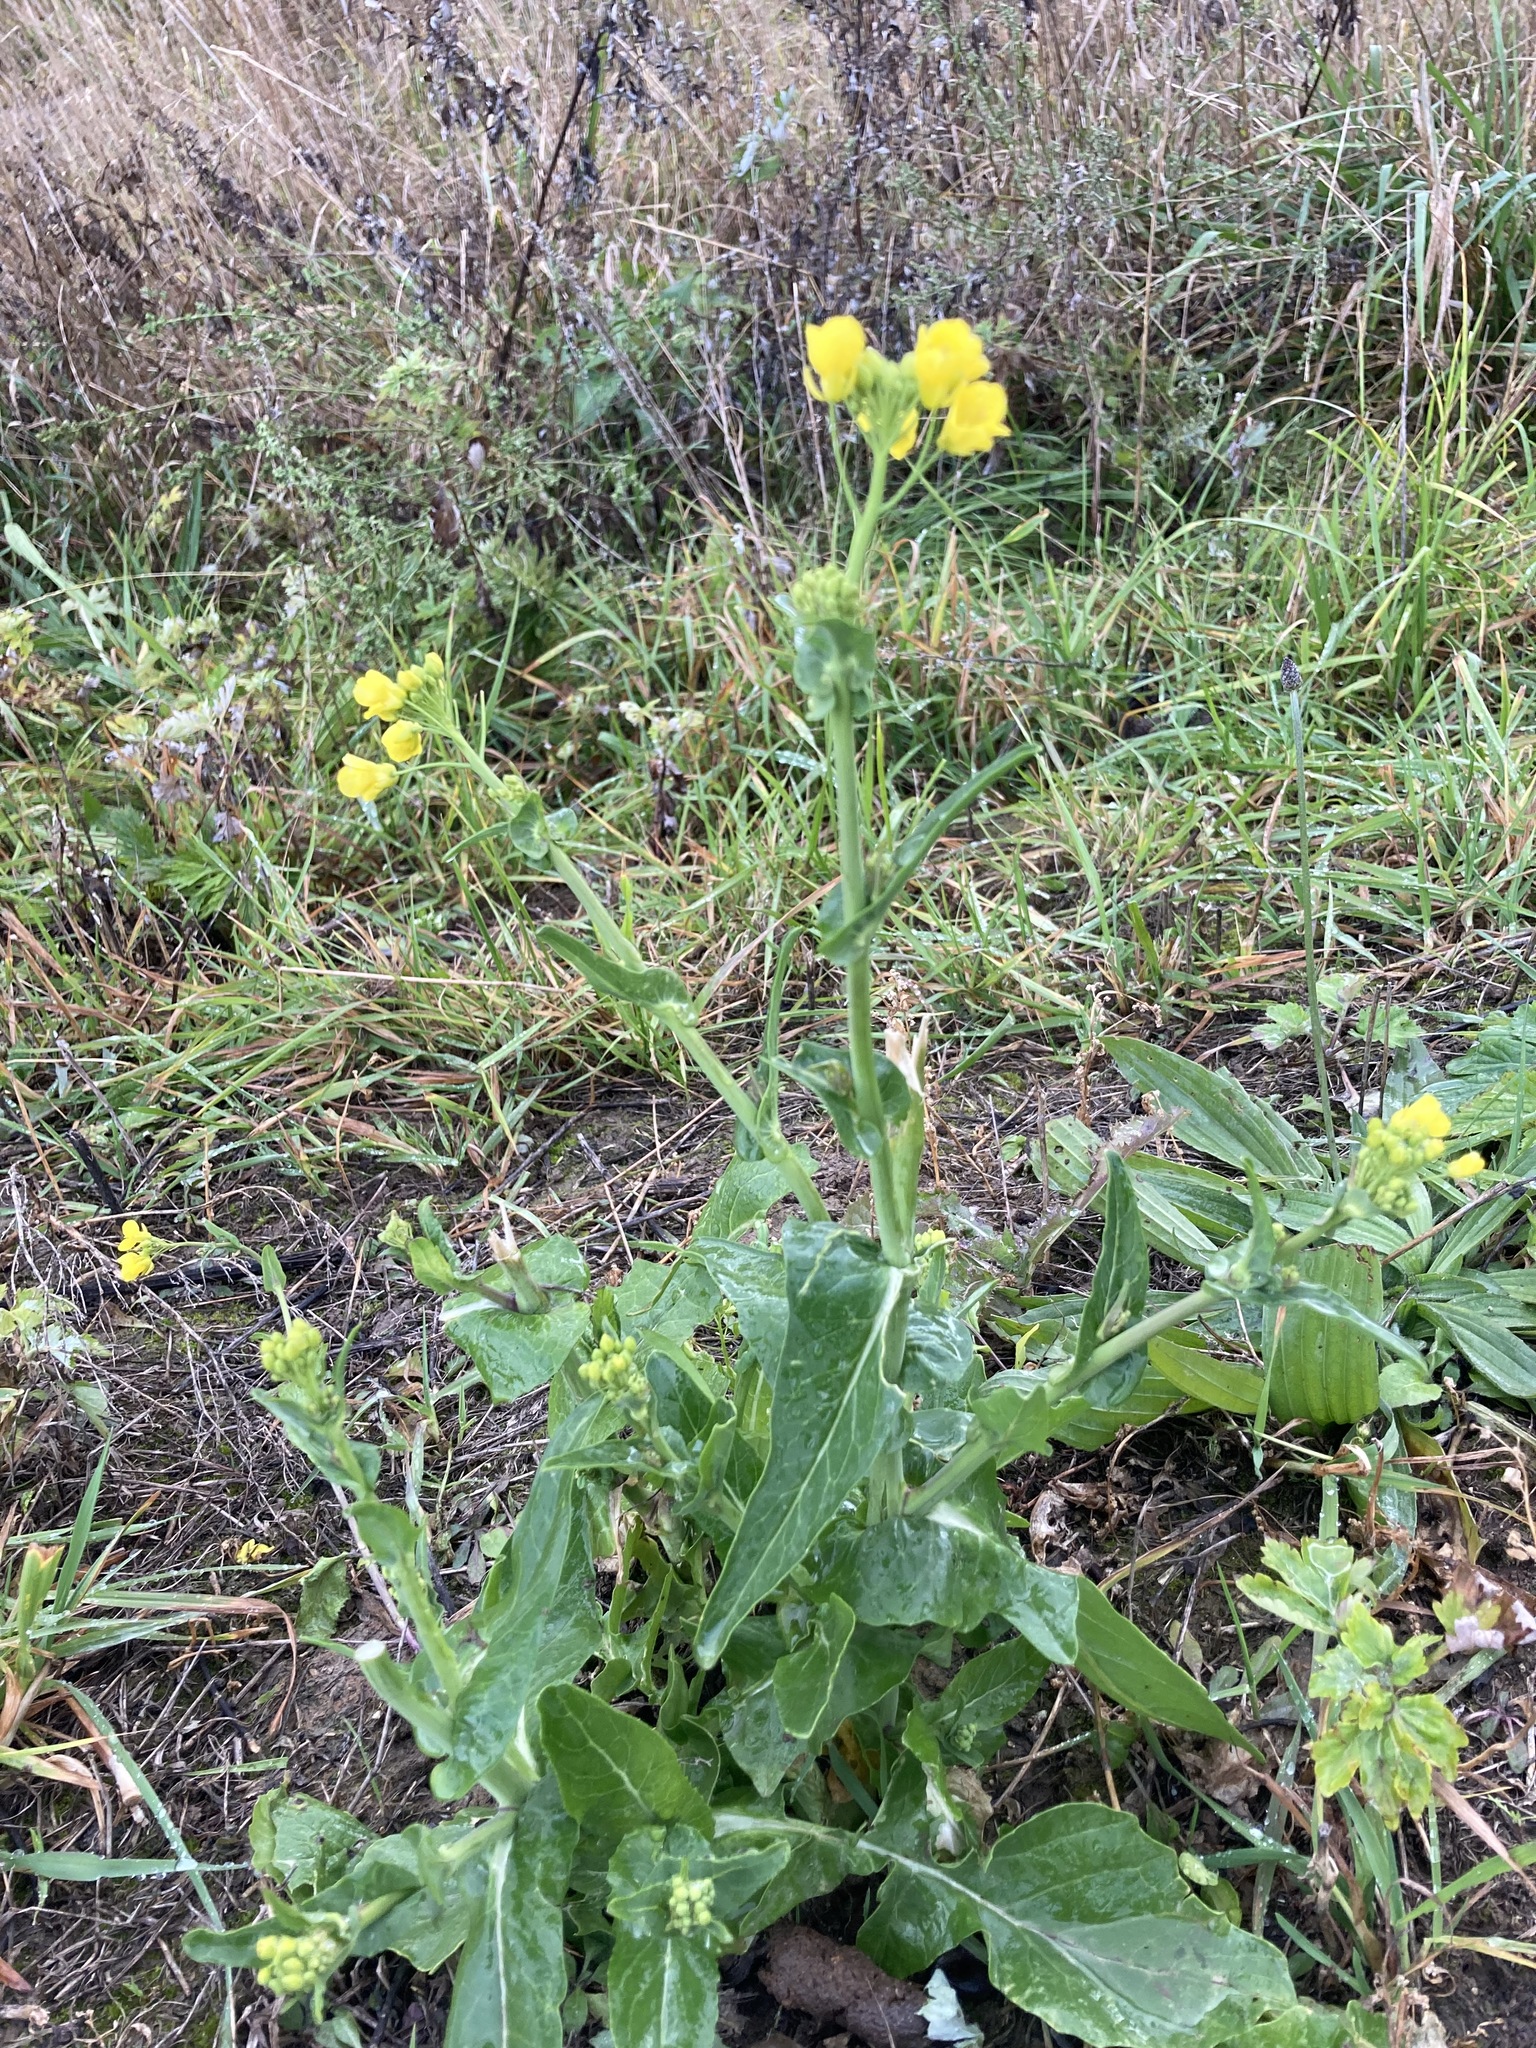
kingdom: Plantae
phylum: Tracheophyta
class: Magnoliopsida
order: Brassicales
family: Brassicaceae
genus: Brassica
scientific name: Brassica rapa
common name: Field mustard
